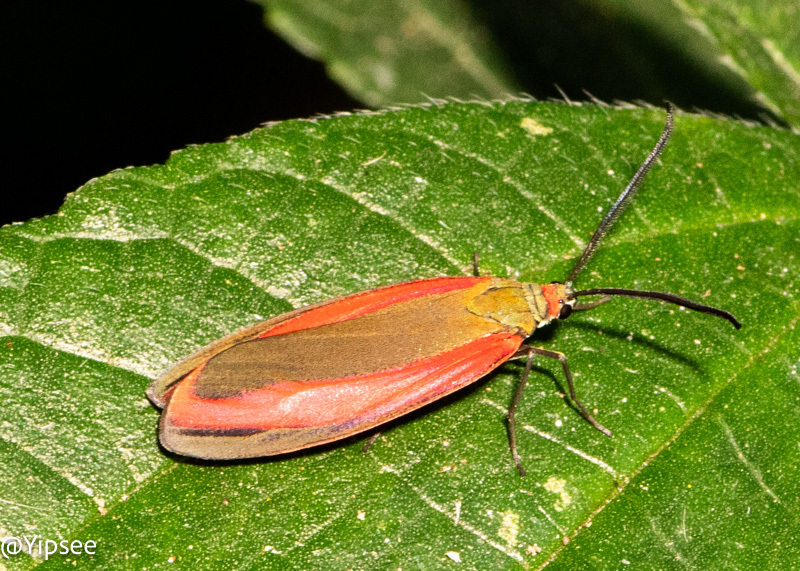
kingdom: Animalia
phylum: Arthropoda
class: Insecta
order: Lepidoptera
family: Zygaenidae
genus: Retina
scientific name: Retina rubrivitta
